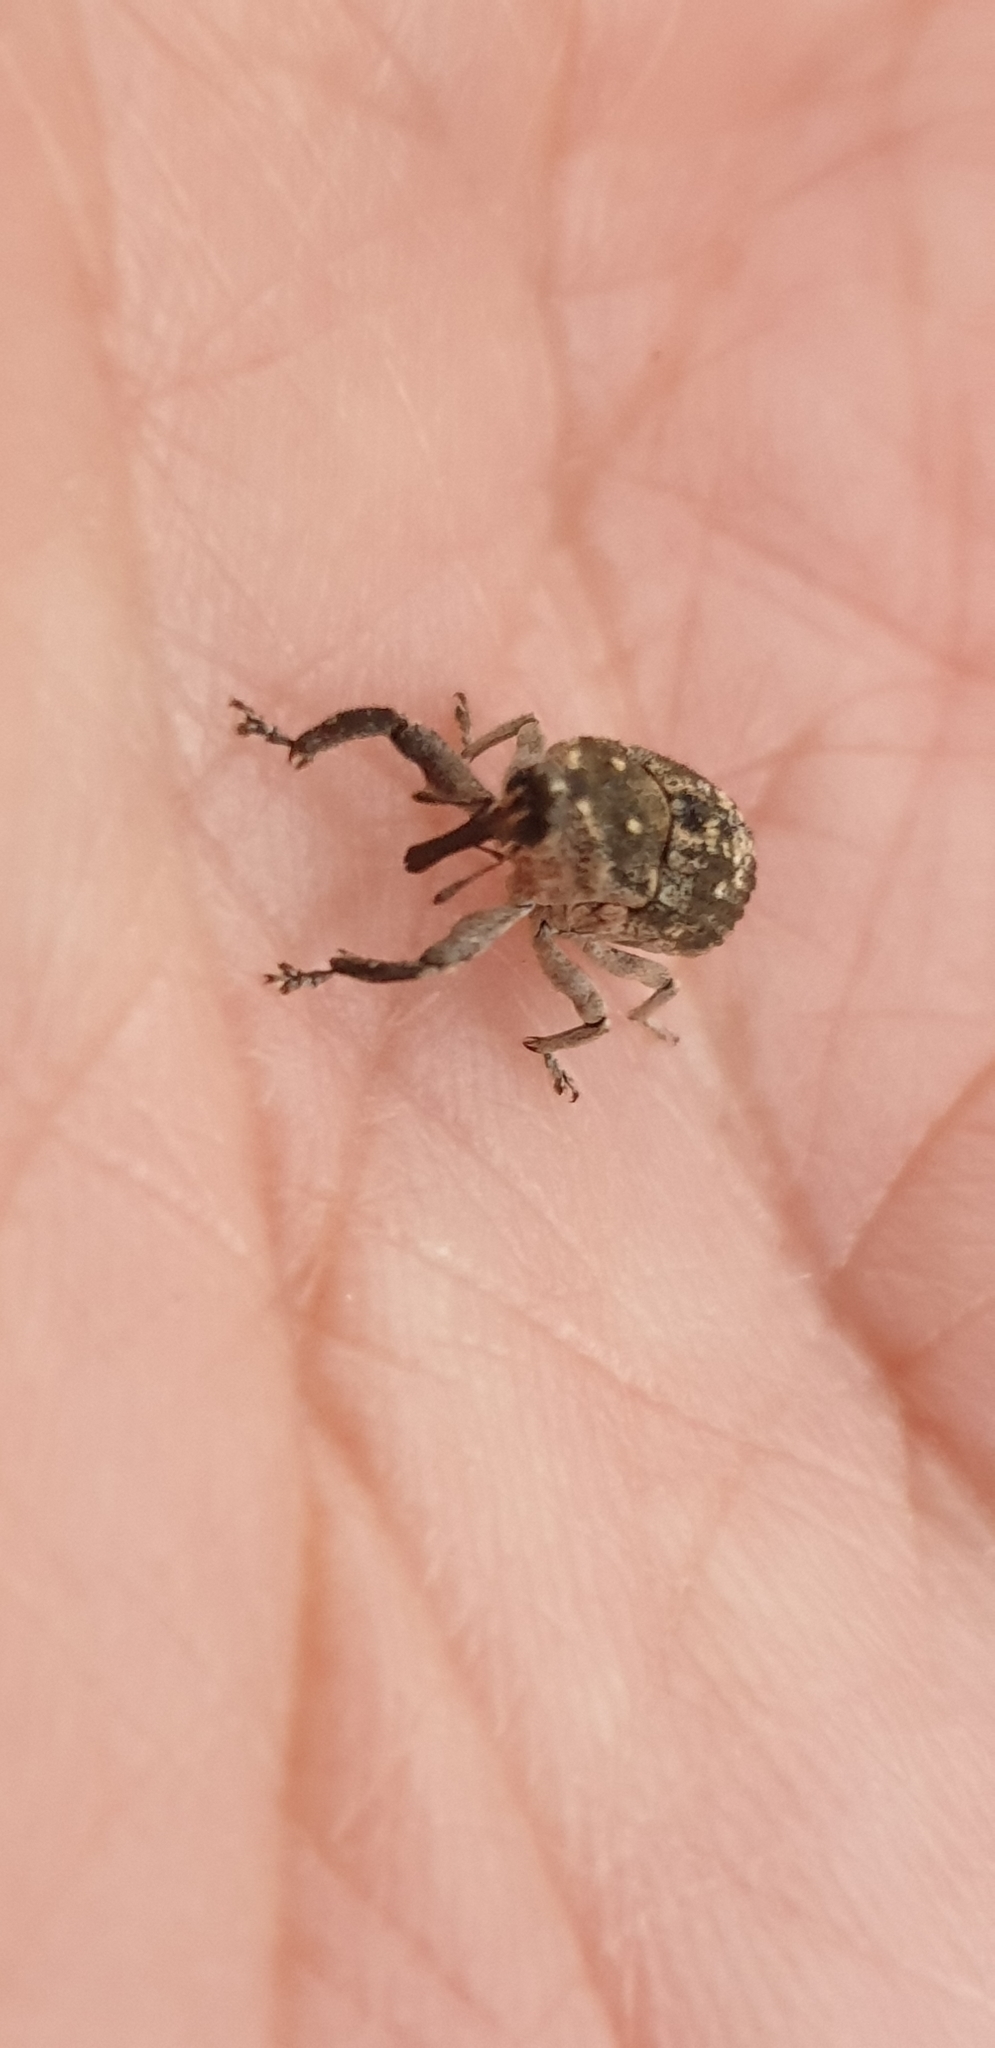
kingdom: Animalia
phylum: Arthropoda
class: Insecta
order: Coleoptera
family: Curculionidae
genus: Eutyrhinus
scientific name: Eutyrhinus meditabundus
